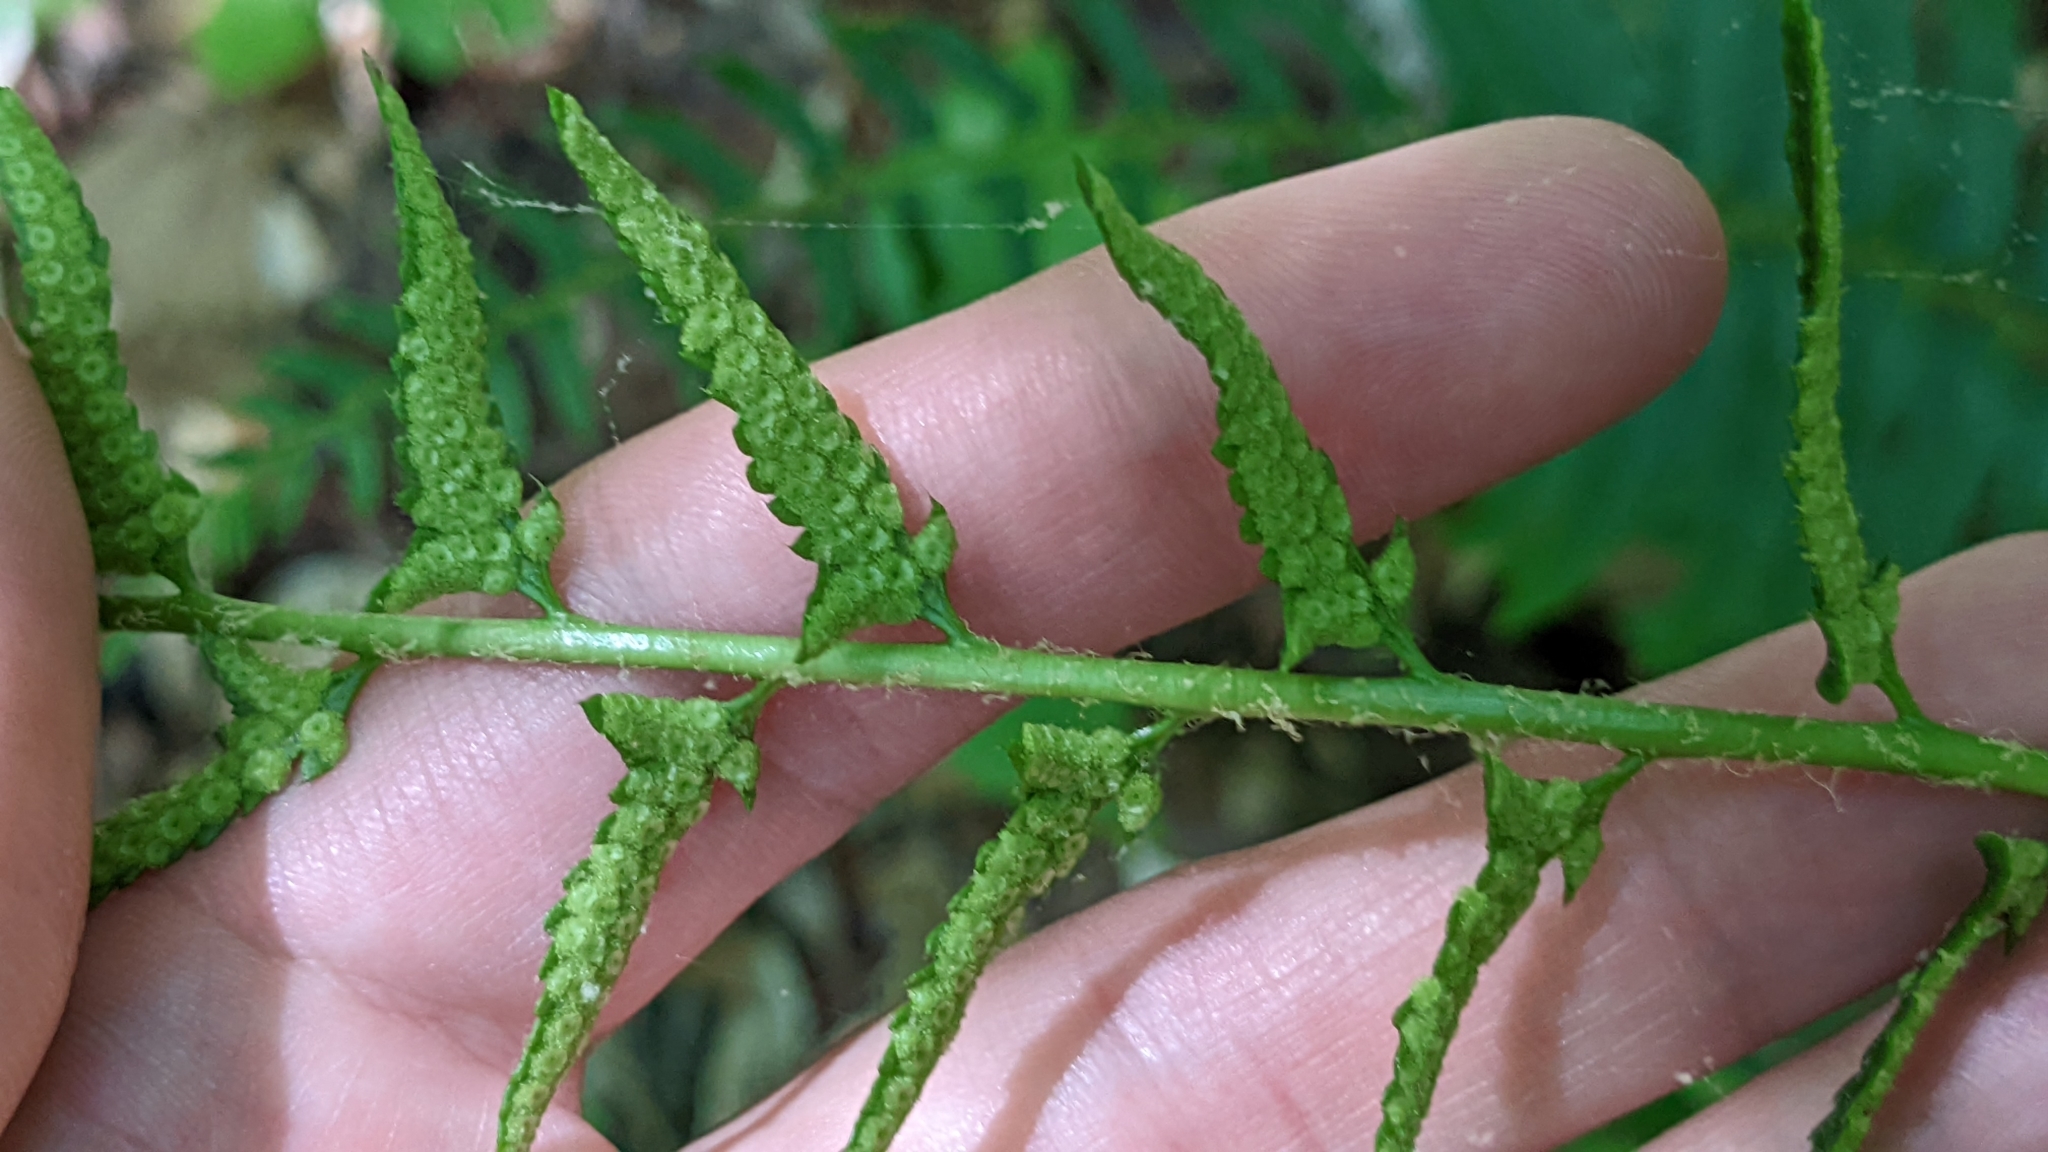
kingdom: Plantae
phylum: Tracheophyta
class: Polypodiopsida
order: Polypodiales
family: Dryopteridaceae
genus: Polystichum
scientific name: Polystichum acrostichoides
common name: Christmas fern
